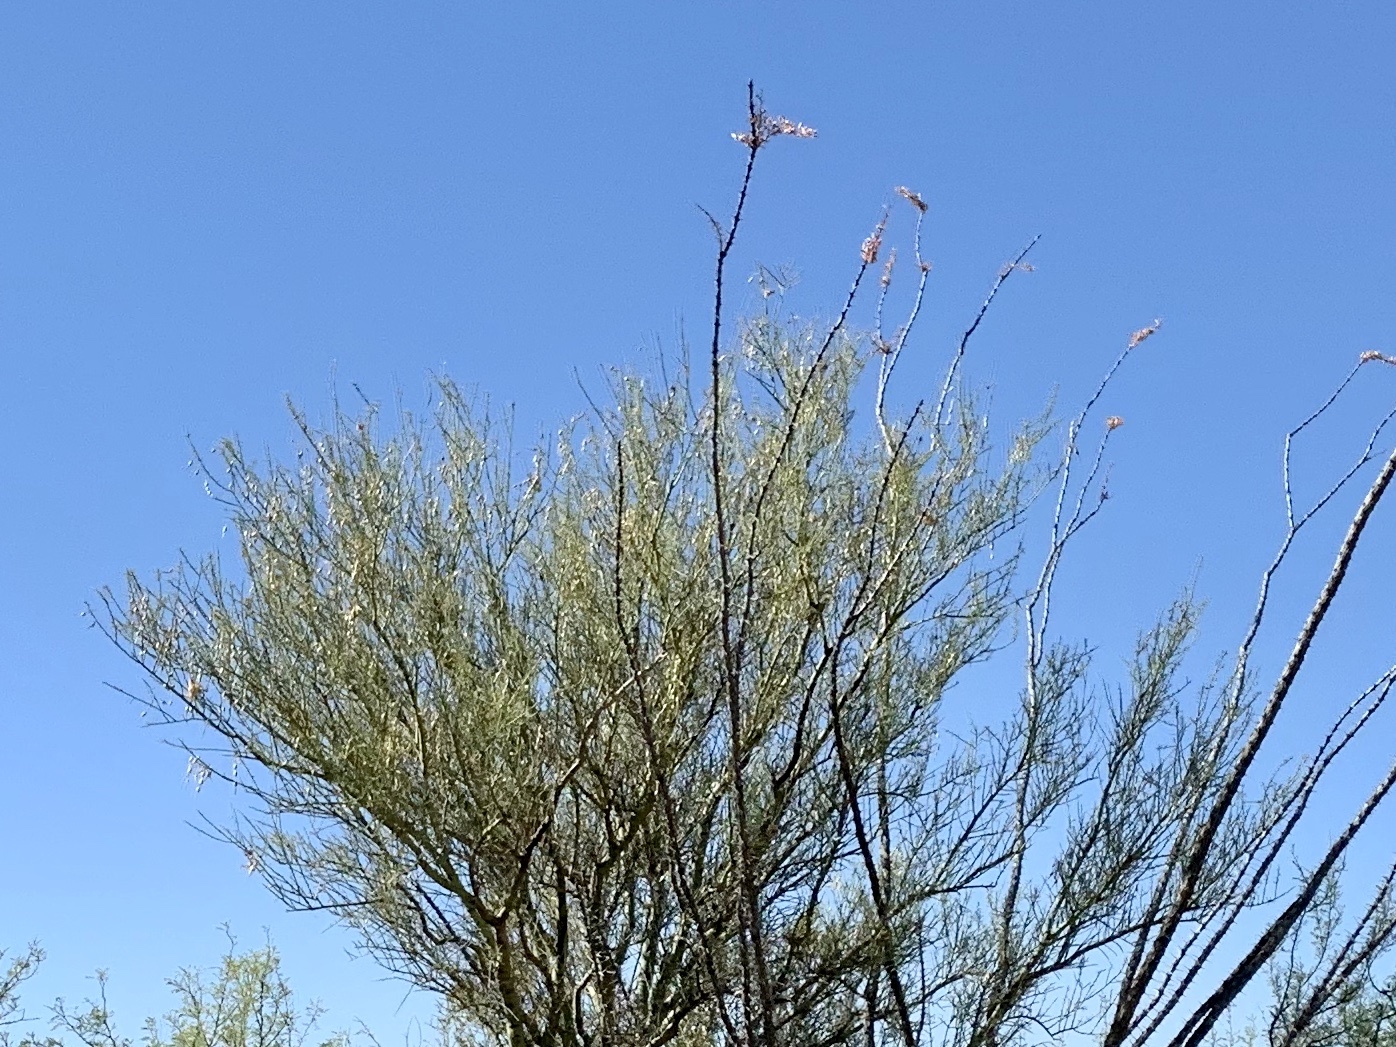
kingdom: Plantae
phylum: Tracheophyta
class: Magnoliopsida
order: Fabales
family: Fabaceae
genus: Parkinsonia
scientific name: Parkinsonia microphylla
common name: Yellow paloverde
